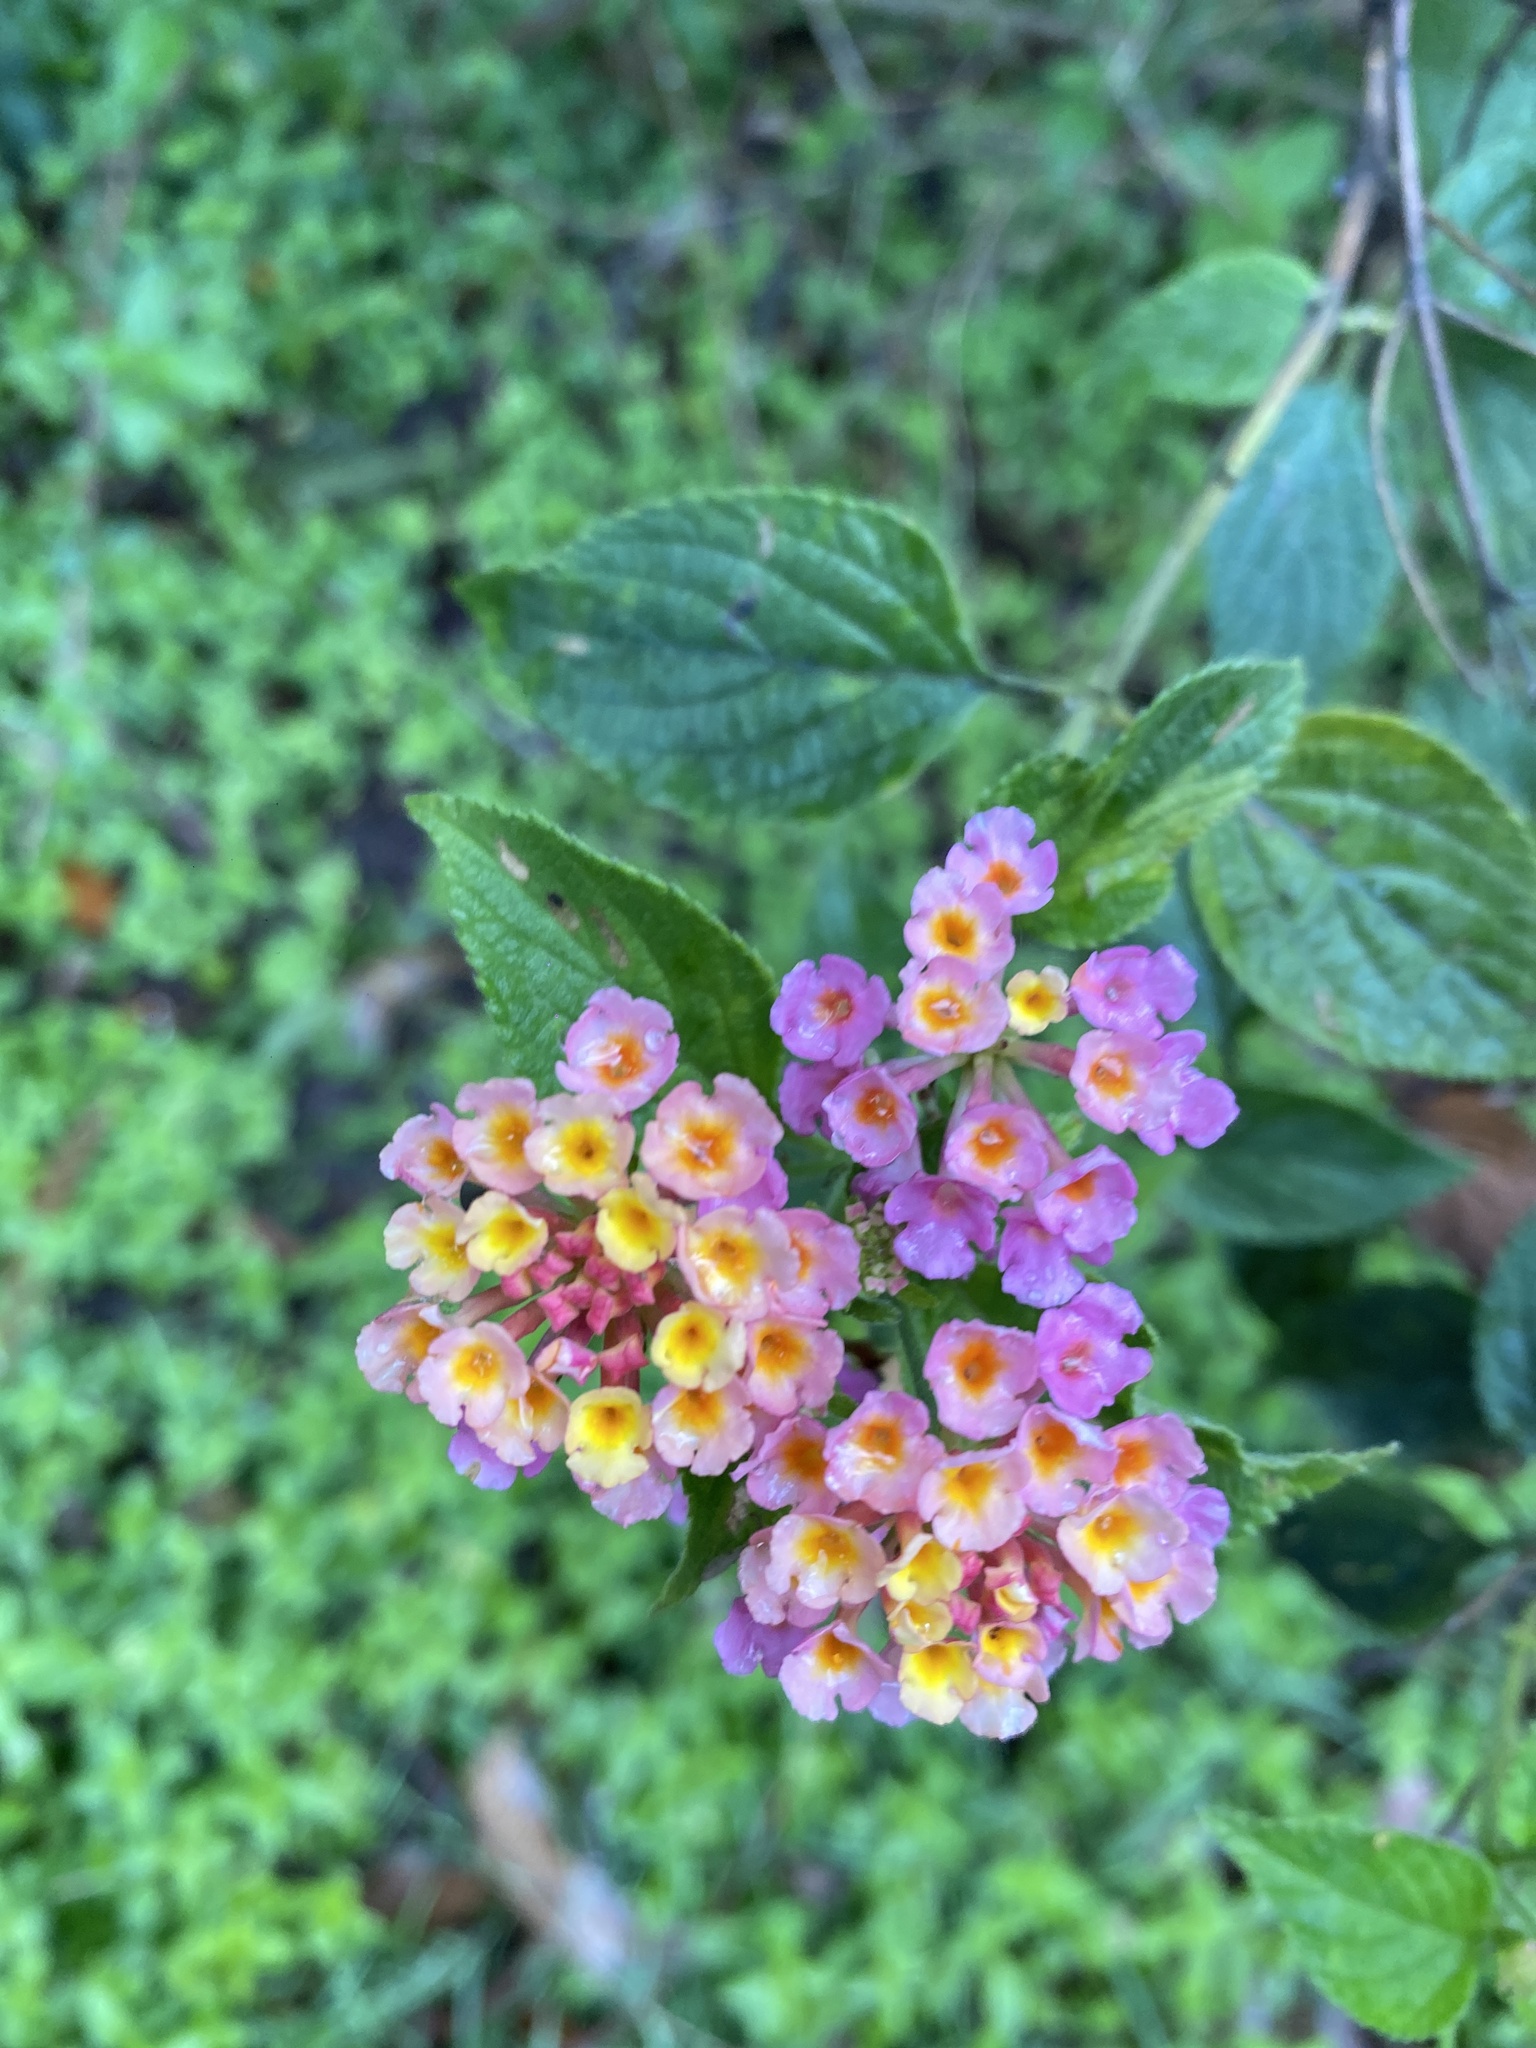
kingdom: Plantae
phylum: Tracheophyta
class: Magnoliopsida
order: Lamiales
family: Verbenaceae
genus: Lantana
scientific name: Lantana camara
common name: Lantana
